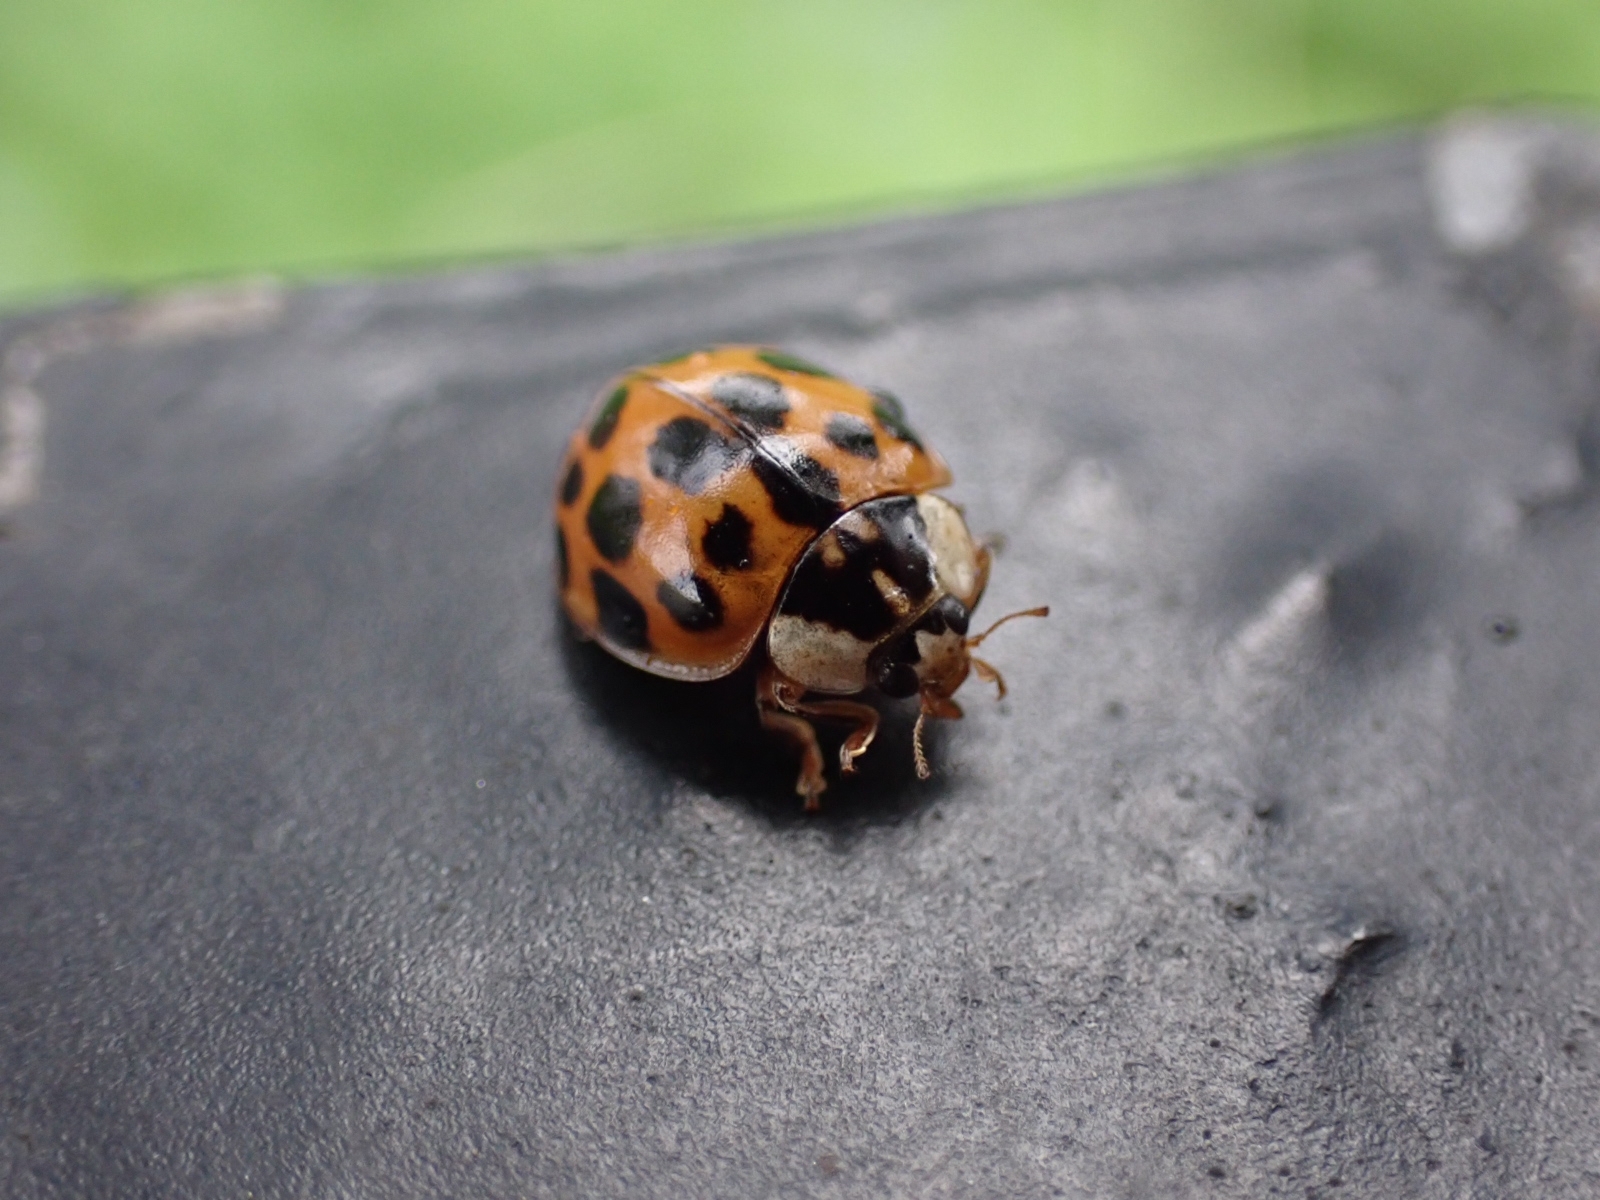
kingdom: Animalia
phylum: Arthropoda
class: Insecta
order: Coleoptera
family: Coccinellidae
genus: Harmonia
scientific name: Harmonia axyridis
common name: Harlequin ladybird
